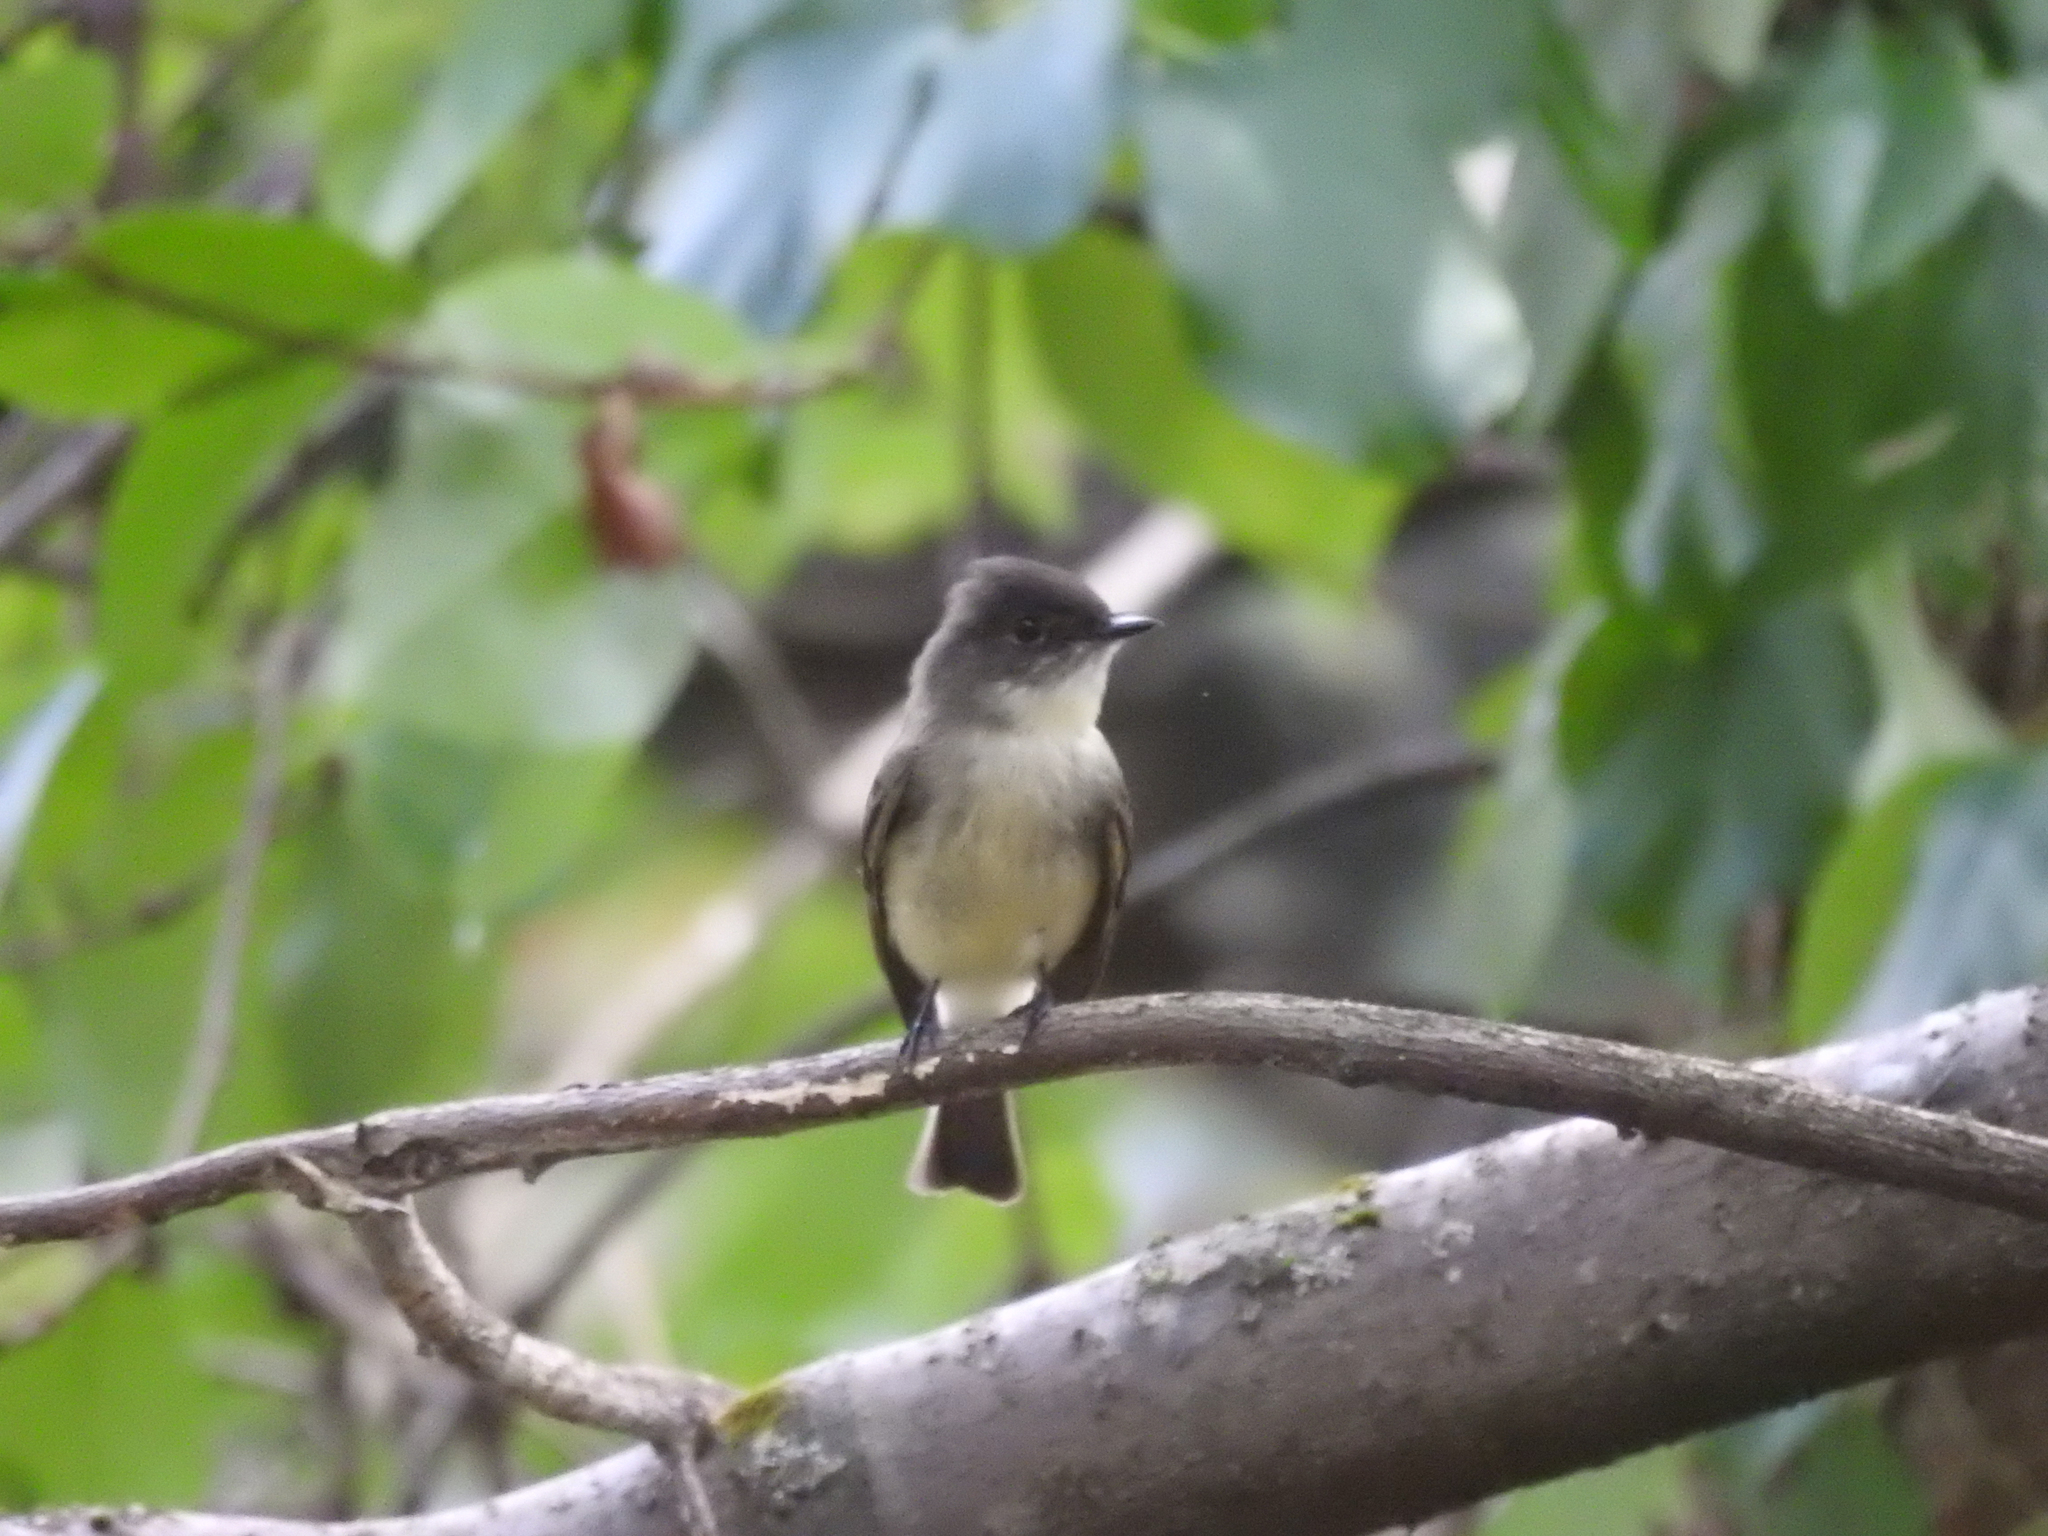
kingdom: Animalia
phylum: Chordata
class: Aves
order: Passeriformes
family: Tyrannidae
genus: Sayornis
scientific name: Sayornis phoebe
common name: Eastern phoebe
